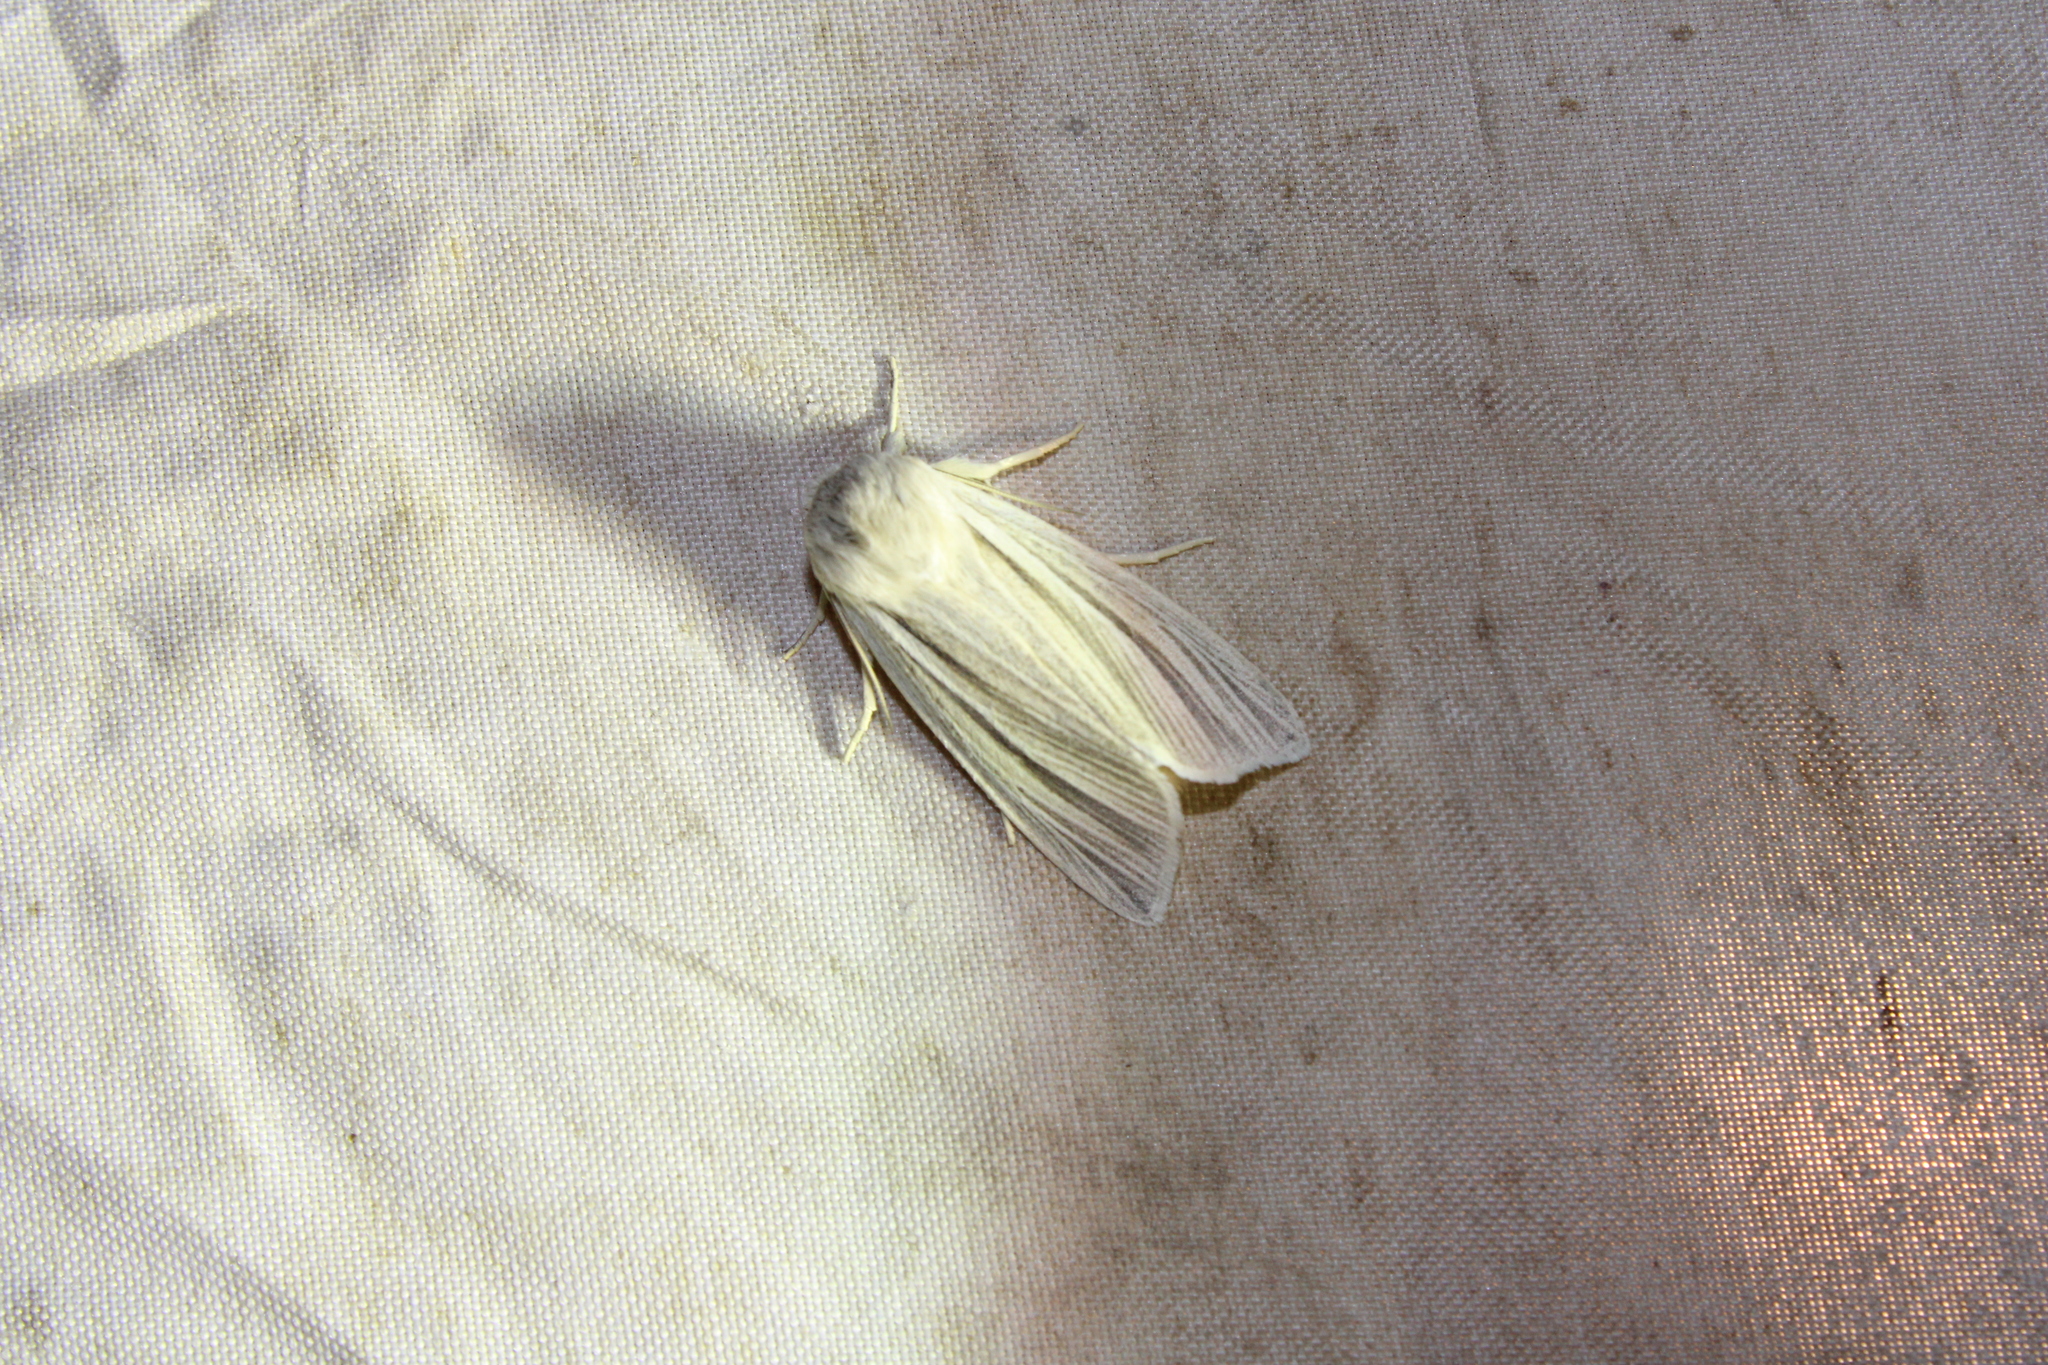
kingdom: Animalia
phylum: Arthropoda
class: Insecta
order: Lepidoptera
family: Noctuidae
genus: Acronicta
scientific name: Acronicta insularis
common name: Henry's marsh moth
